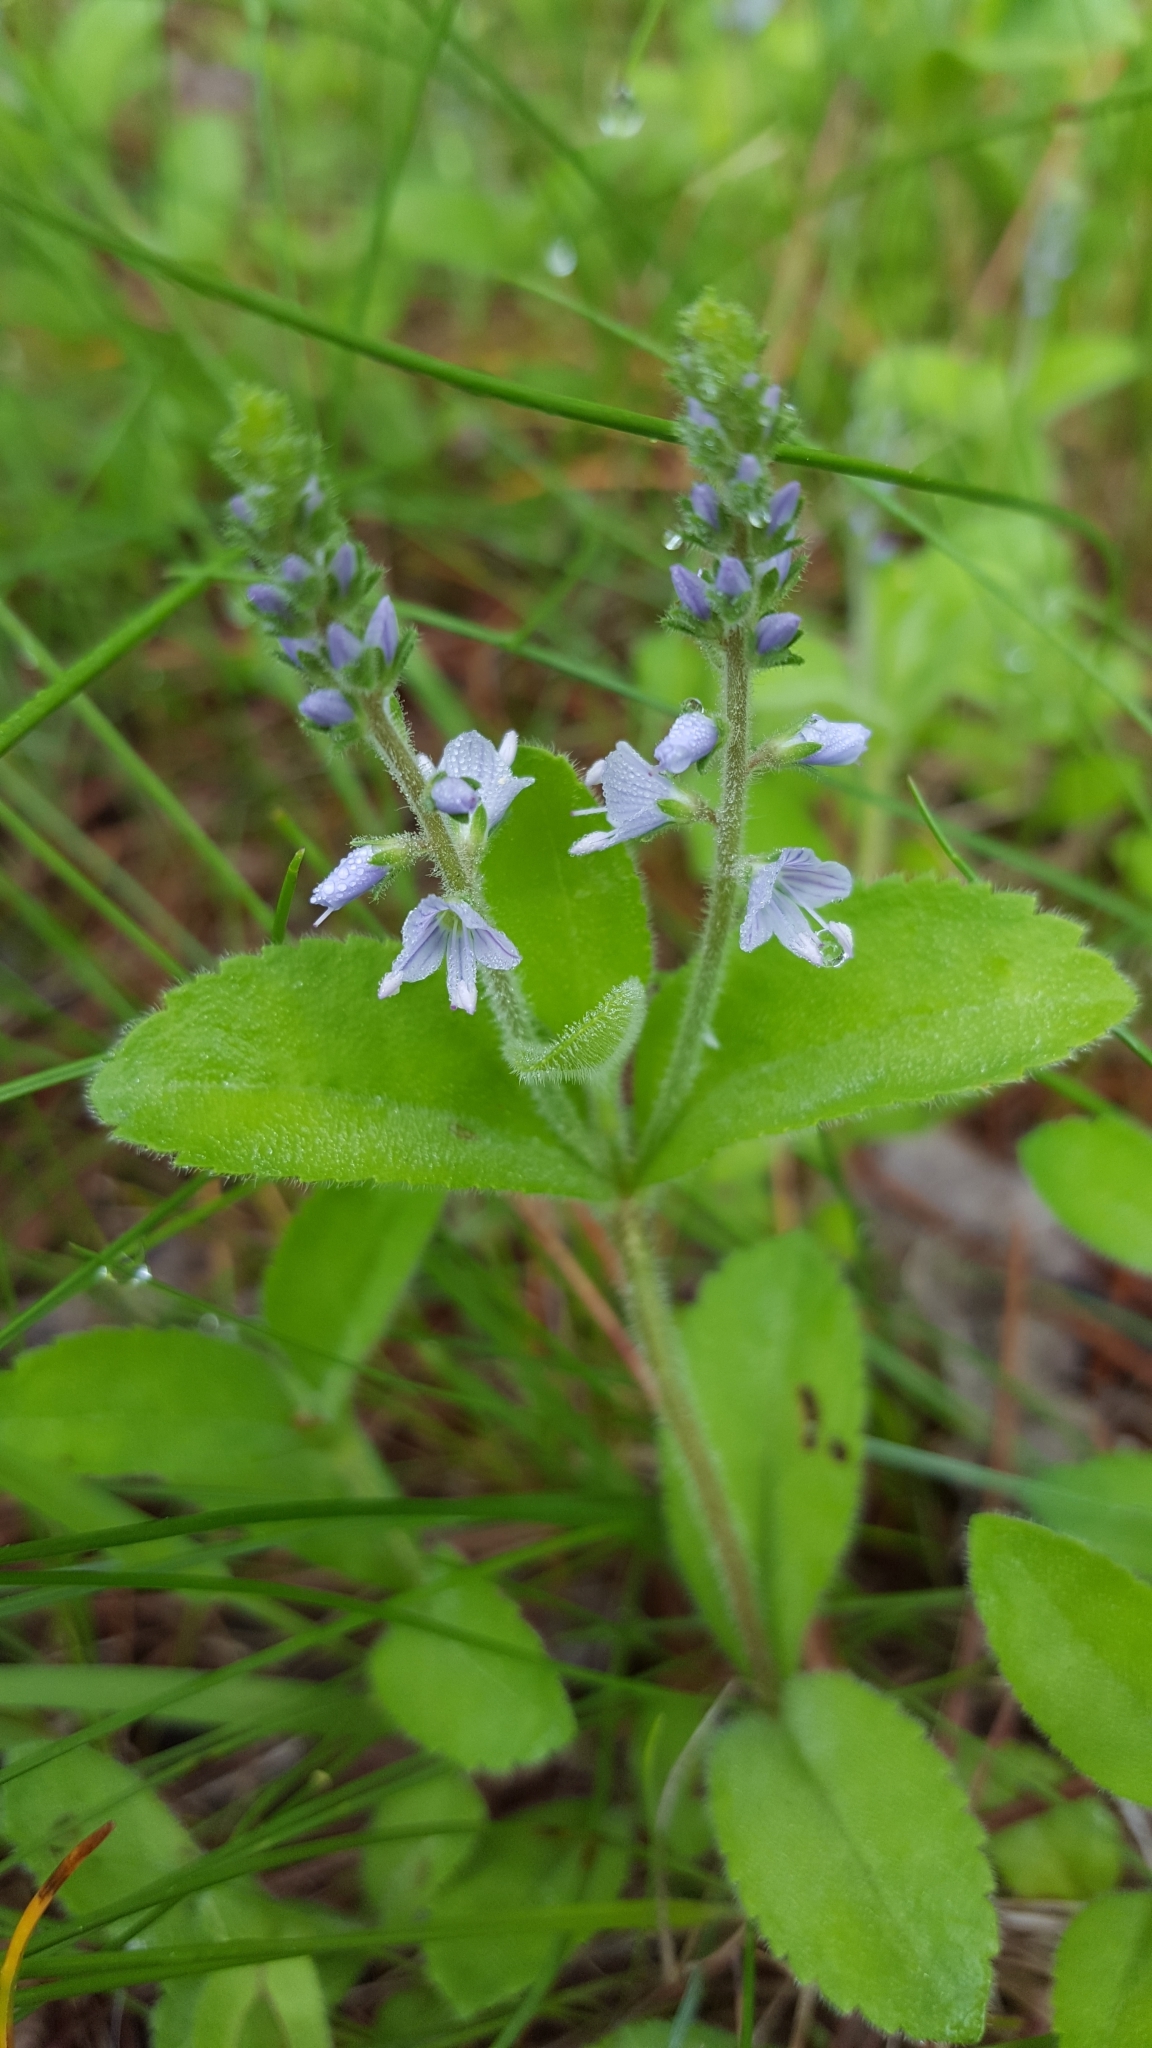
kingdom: Plantae
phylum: Tracheophyta
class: Magnoliopsida
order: Lamiales
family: Plantaginaceae
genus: Veronica
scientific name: Veronica officinalis
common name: Common speedwell
